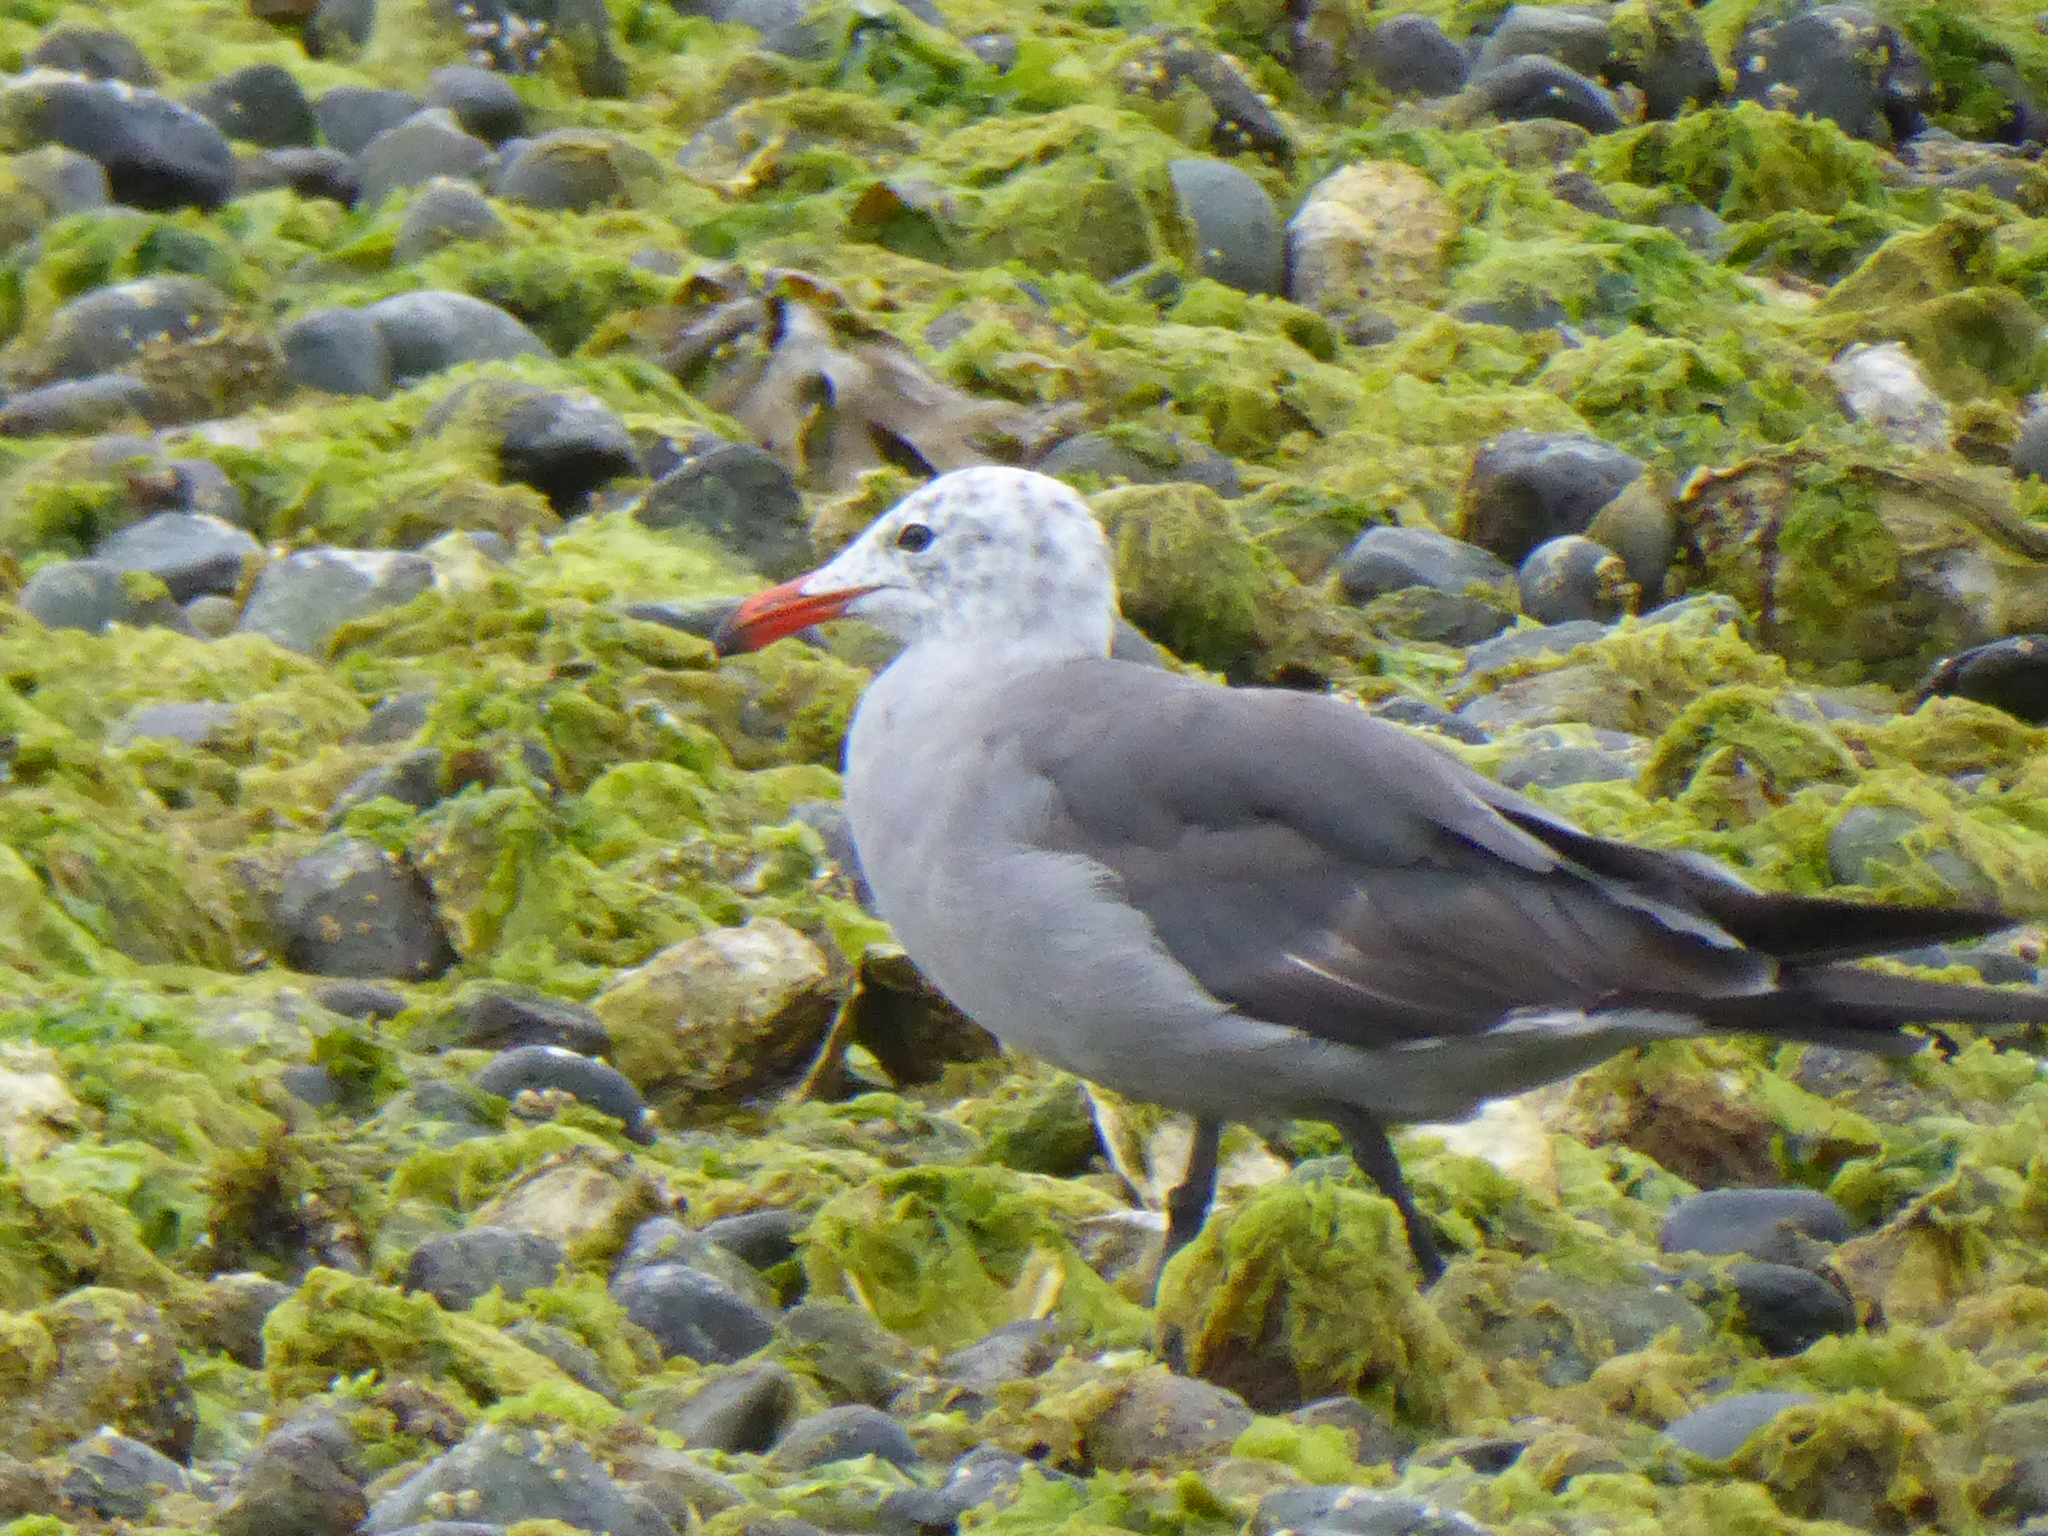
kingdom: Animalia
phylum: Chordata
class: Aves
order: Charadriiformes
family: Laridae
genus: Larus
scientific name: Larus heermanni
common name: Heermann's gull
